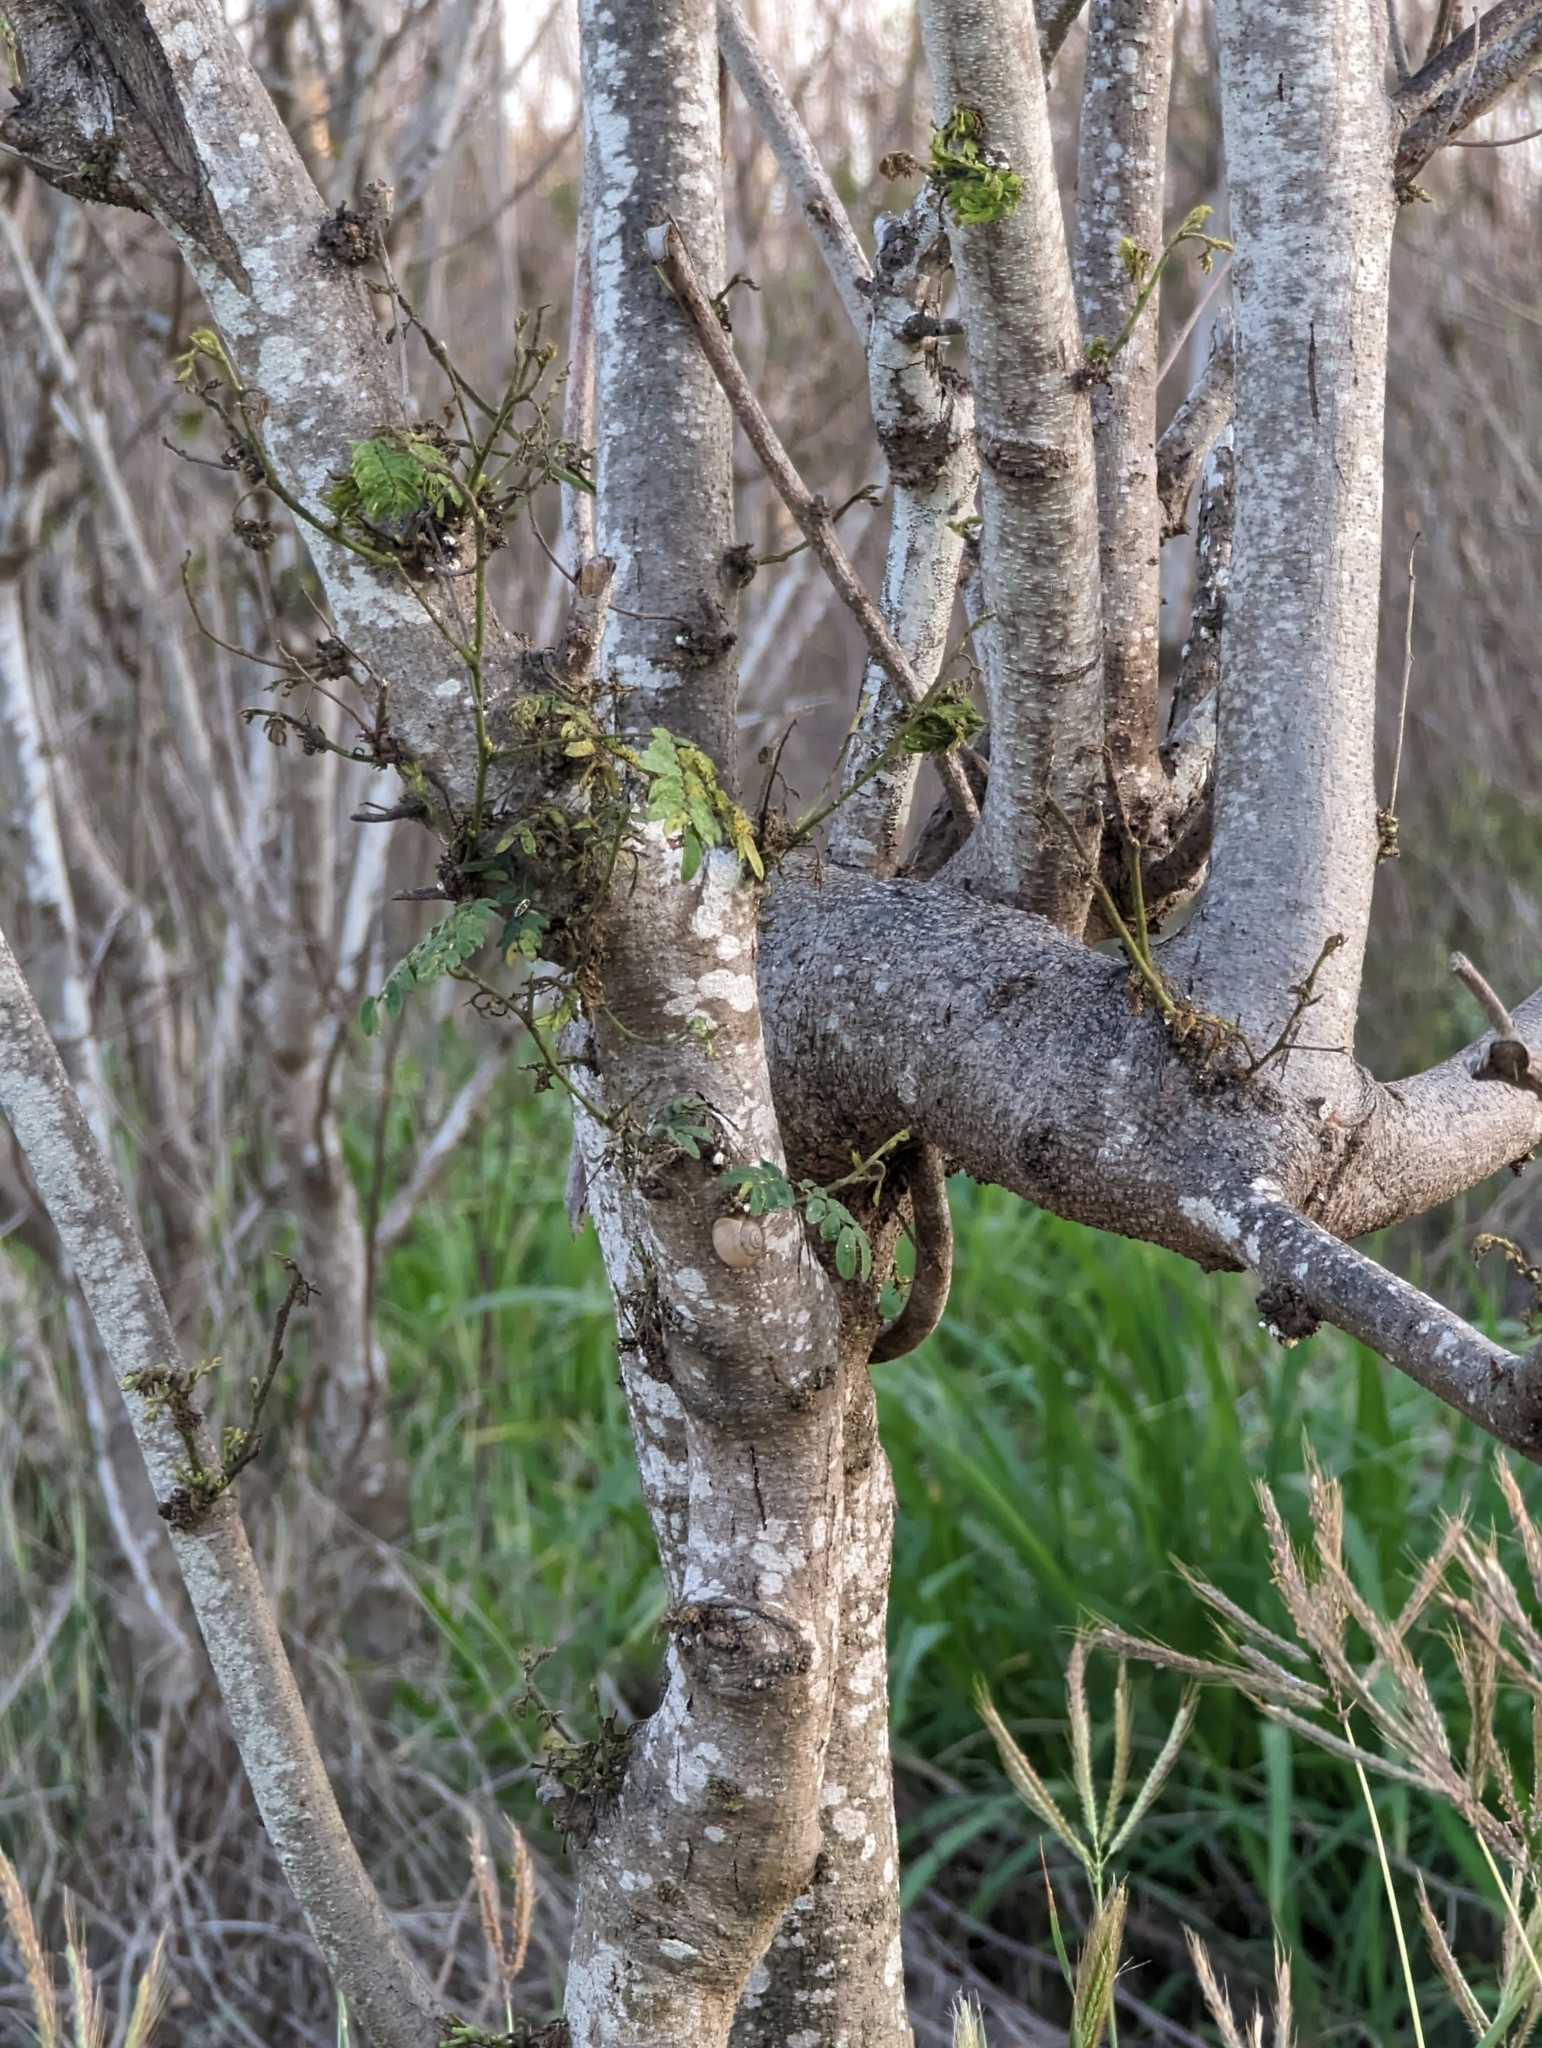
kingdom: Plantae
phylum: Tracheophyta
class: Magnoliopsida
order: Fabales
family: Fabaceae
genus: Leucaena
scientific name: Leucaena leucocephala
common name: White leadtree
